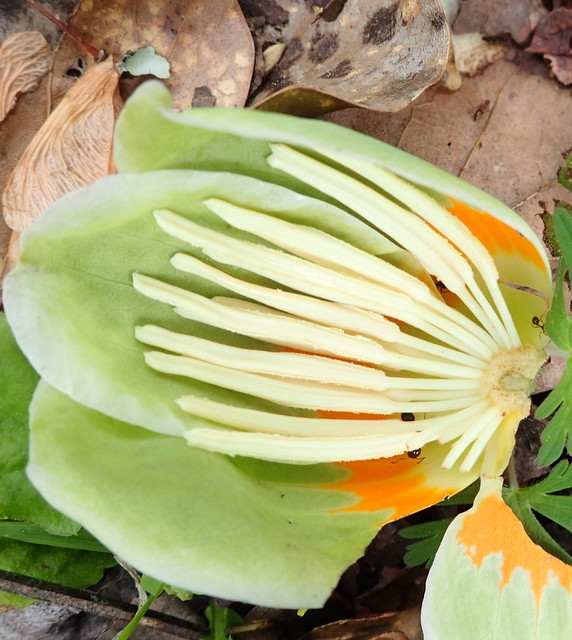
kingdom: Plantae
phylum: Tracheophyta
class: Magnoliopsida
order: Magnoliales
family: Magnoliaceae
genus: Liriodendron
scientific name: Liriodendron tulipifera
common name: Tulip tree
